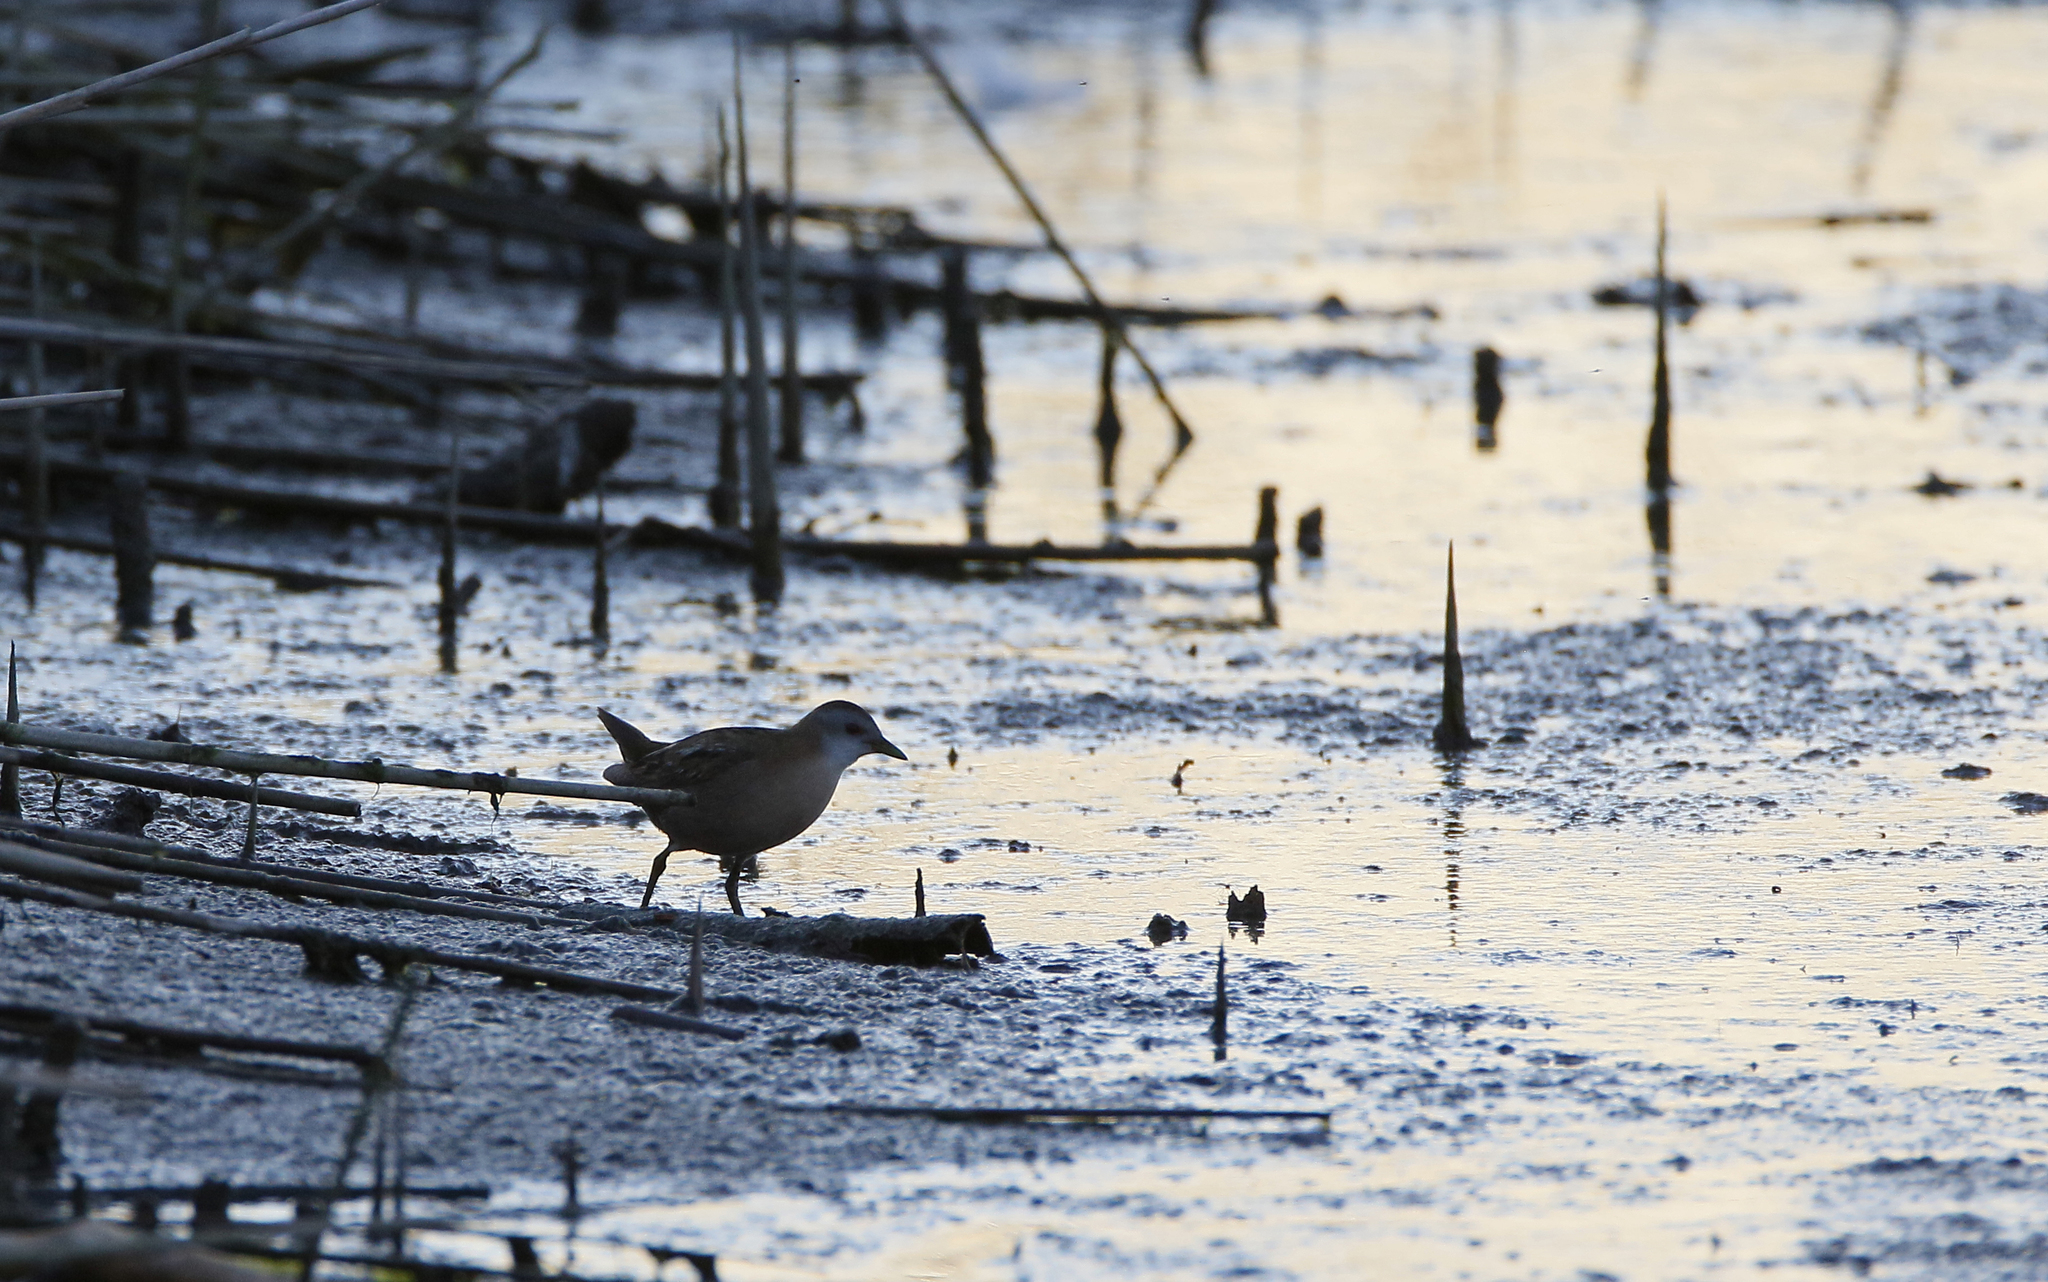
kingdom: Animalia
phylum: Chordata
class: Aves
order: Gruiformes
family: Rallidae
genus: Porzana
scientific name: Porzana parva
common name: Little crake
